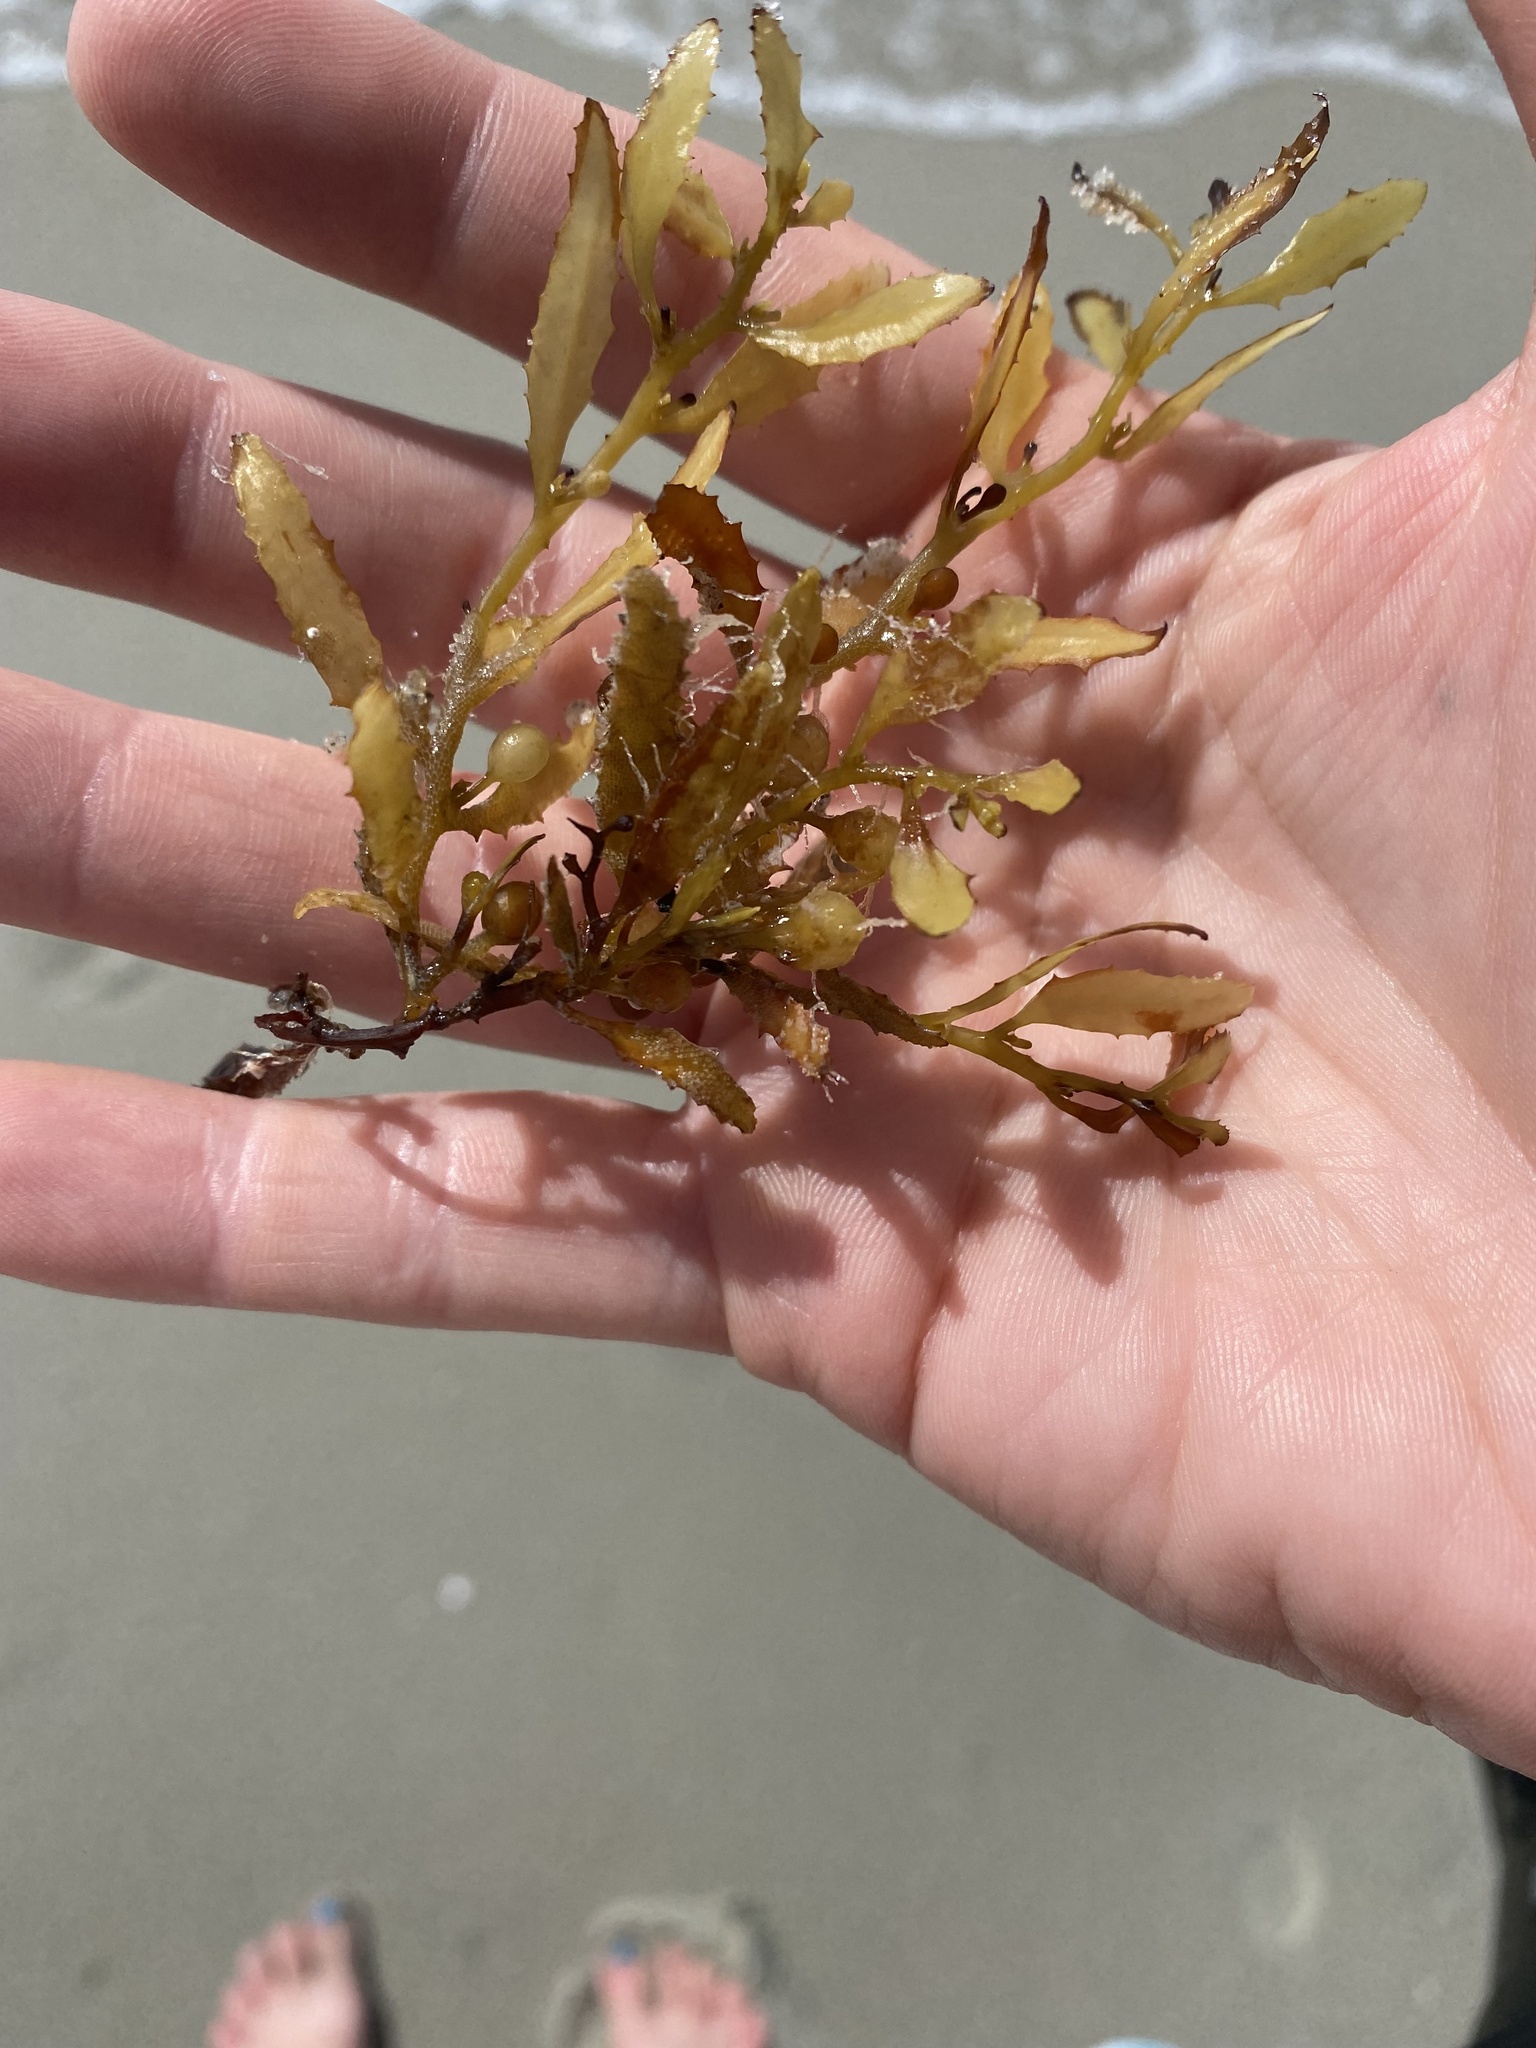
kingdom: Chromista
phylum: Ochrophyta
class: Phaeophyceae
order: Fucales
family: Sargassaceae
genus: Sargassum
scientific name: Sargassum fluitans
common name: Sargassum seaweed
